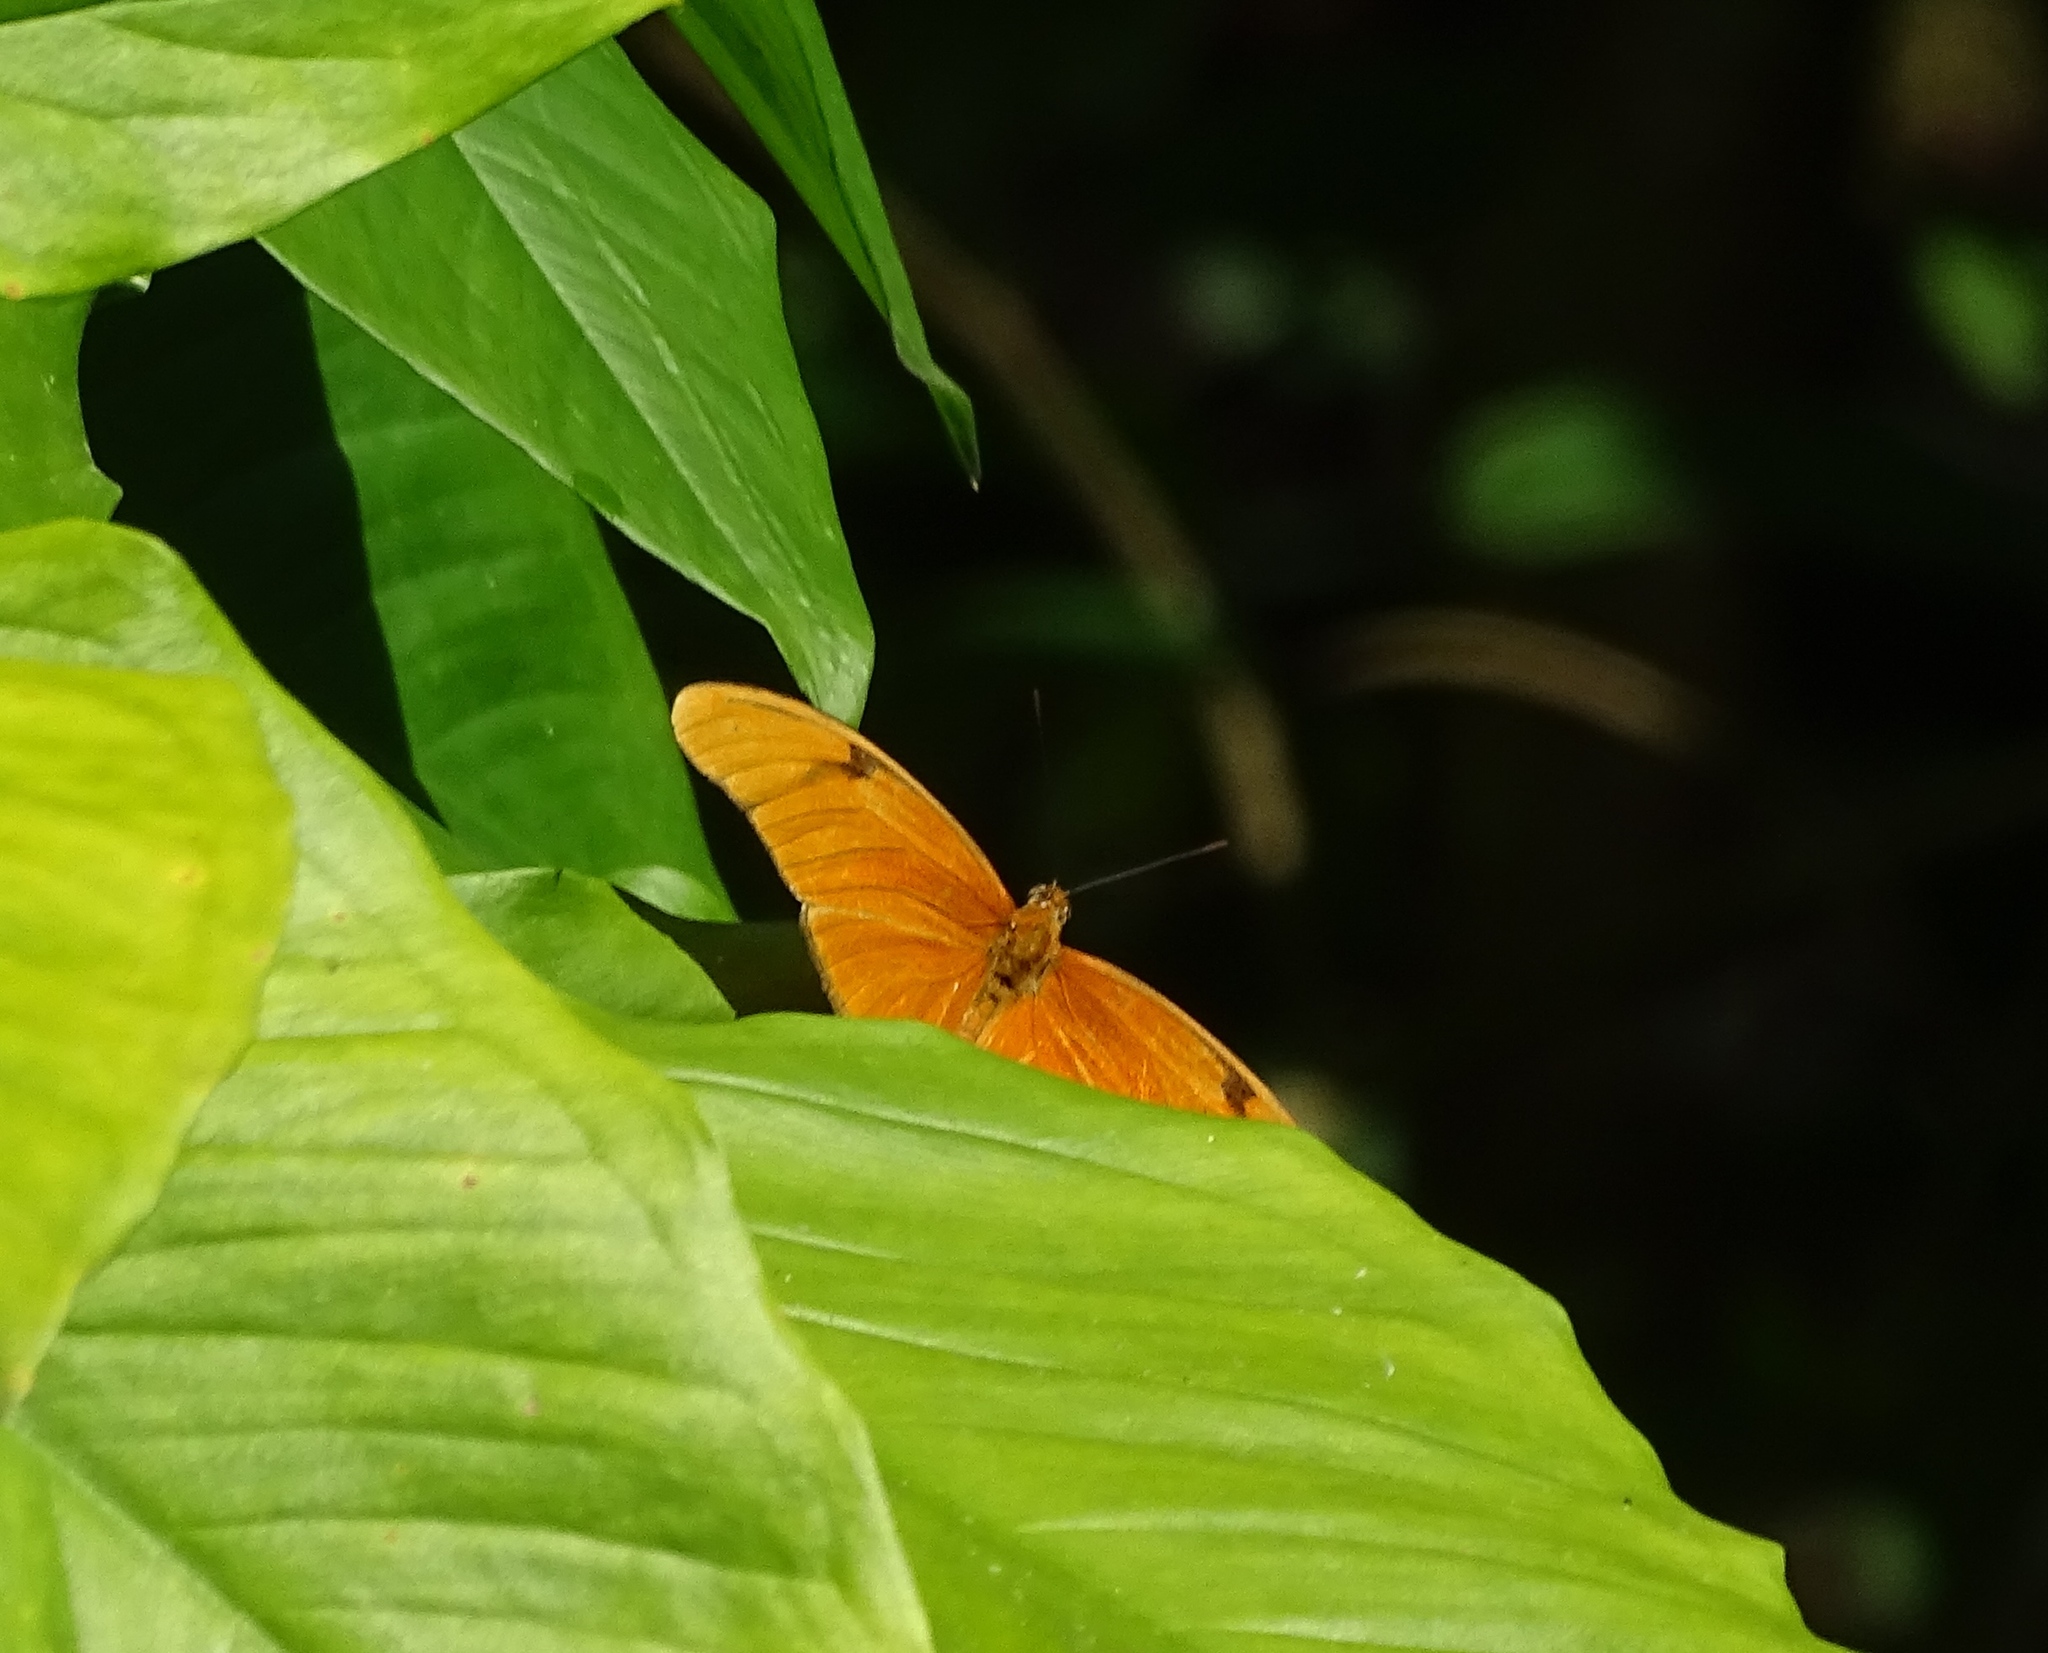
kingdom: Animalia
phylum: Arthropoda
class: Insecta
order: Lepidoptera
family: Nymphalidae
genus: Dryas
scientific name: Dryas iulia
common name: Flambeau
